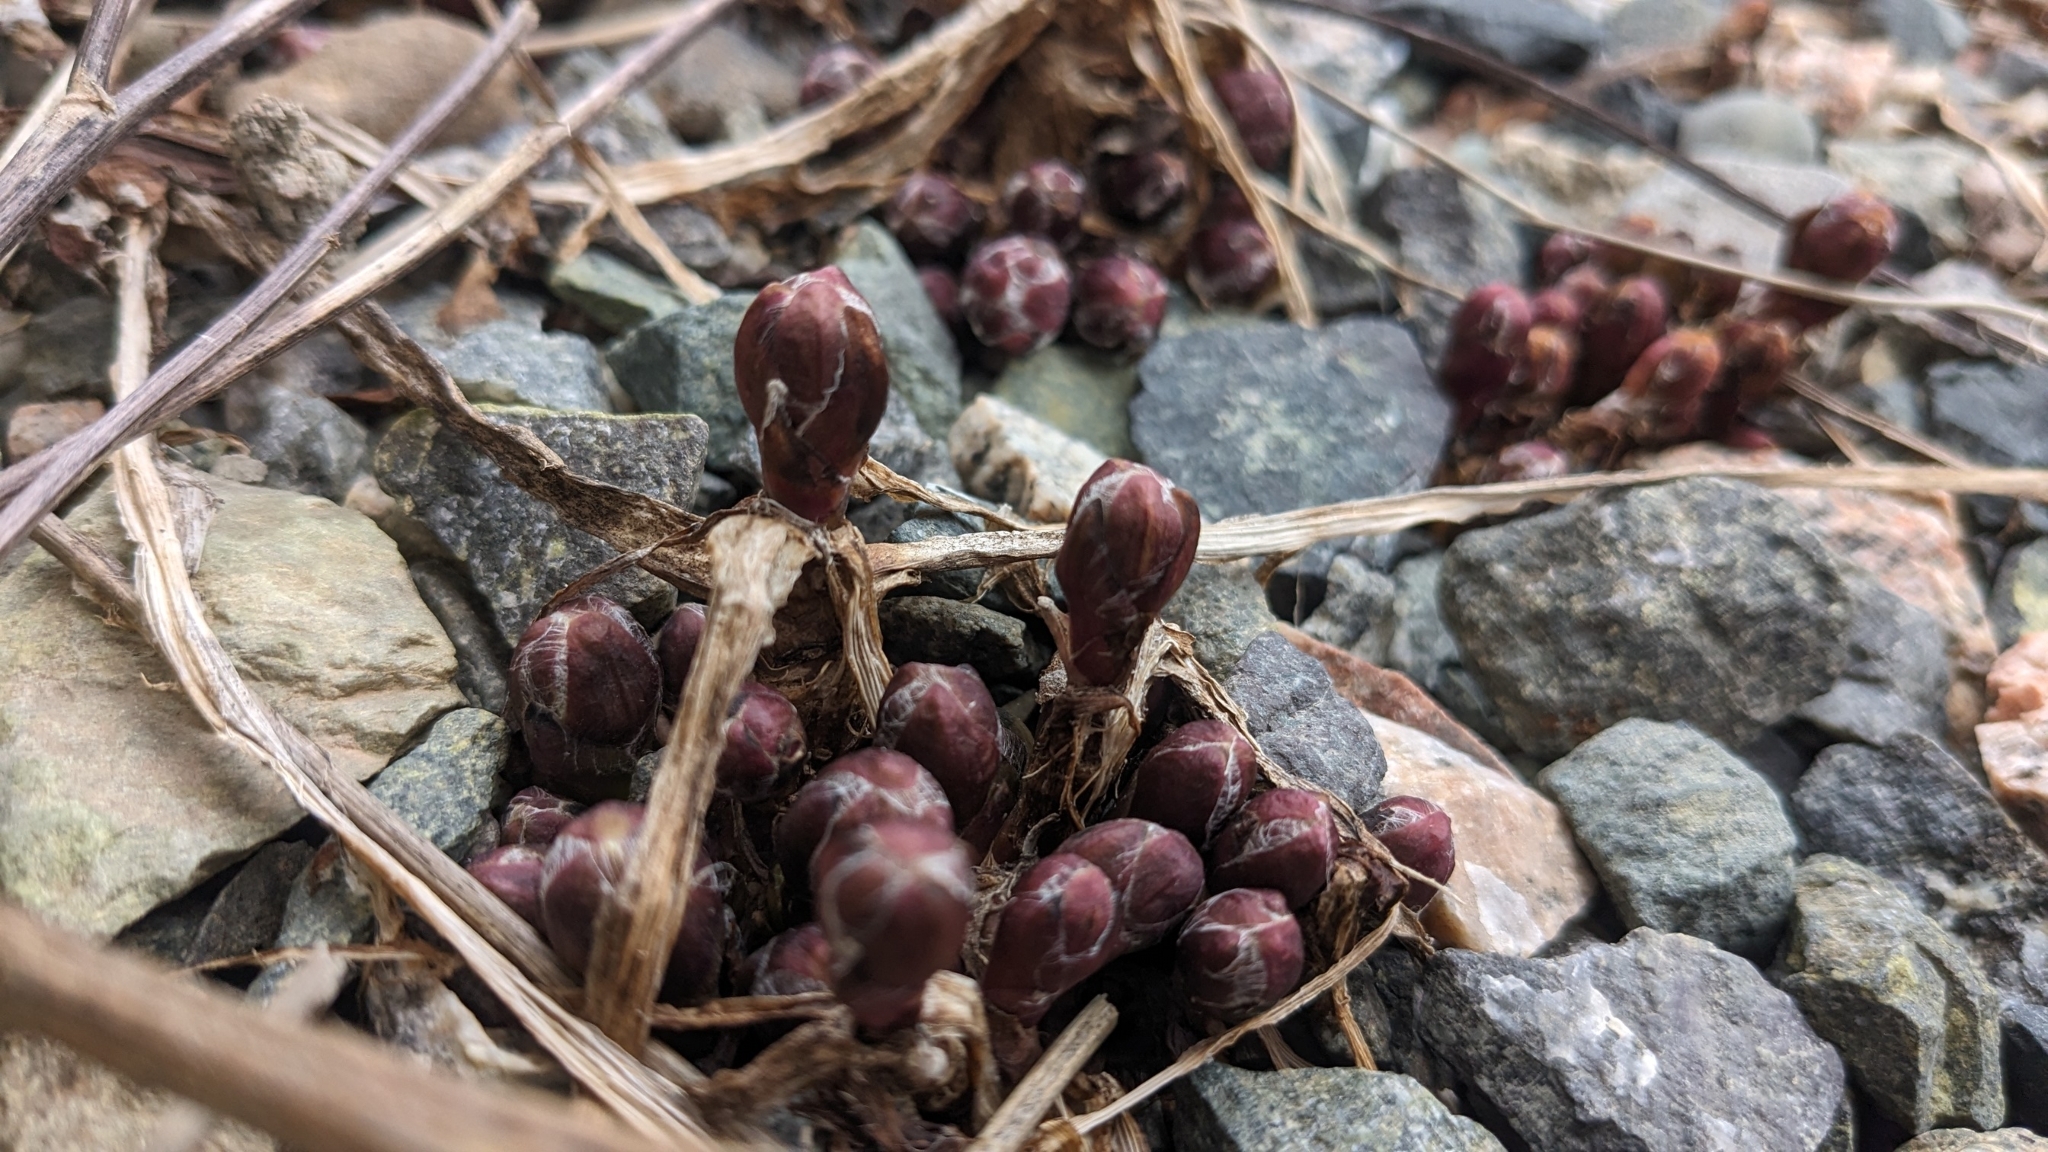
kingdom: Plantae
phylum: Tracheophyta
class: Magnoliopsida
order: Asterales
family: Asteraceae
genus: Tussilago
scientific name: Tussilago farfara
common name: Coltsfoot
